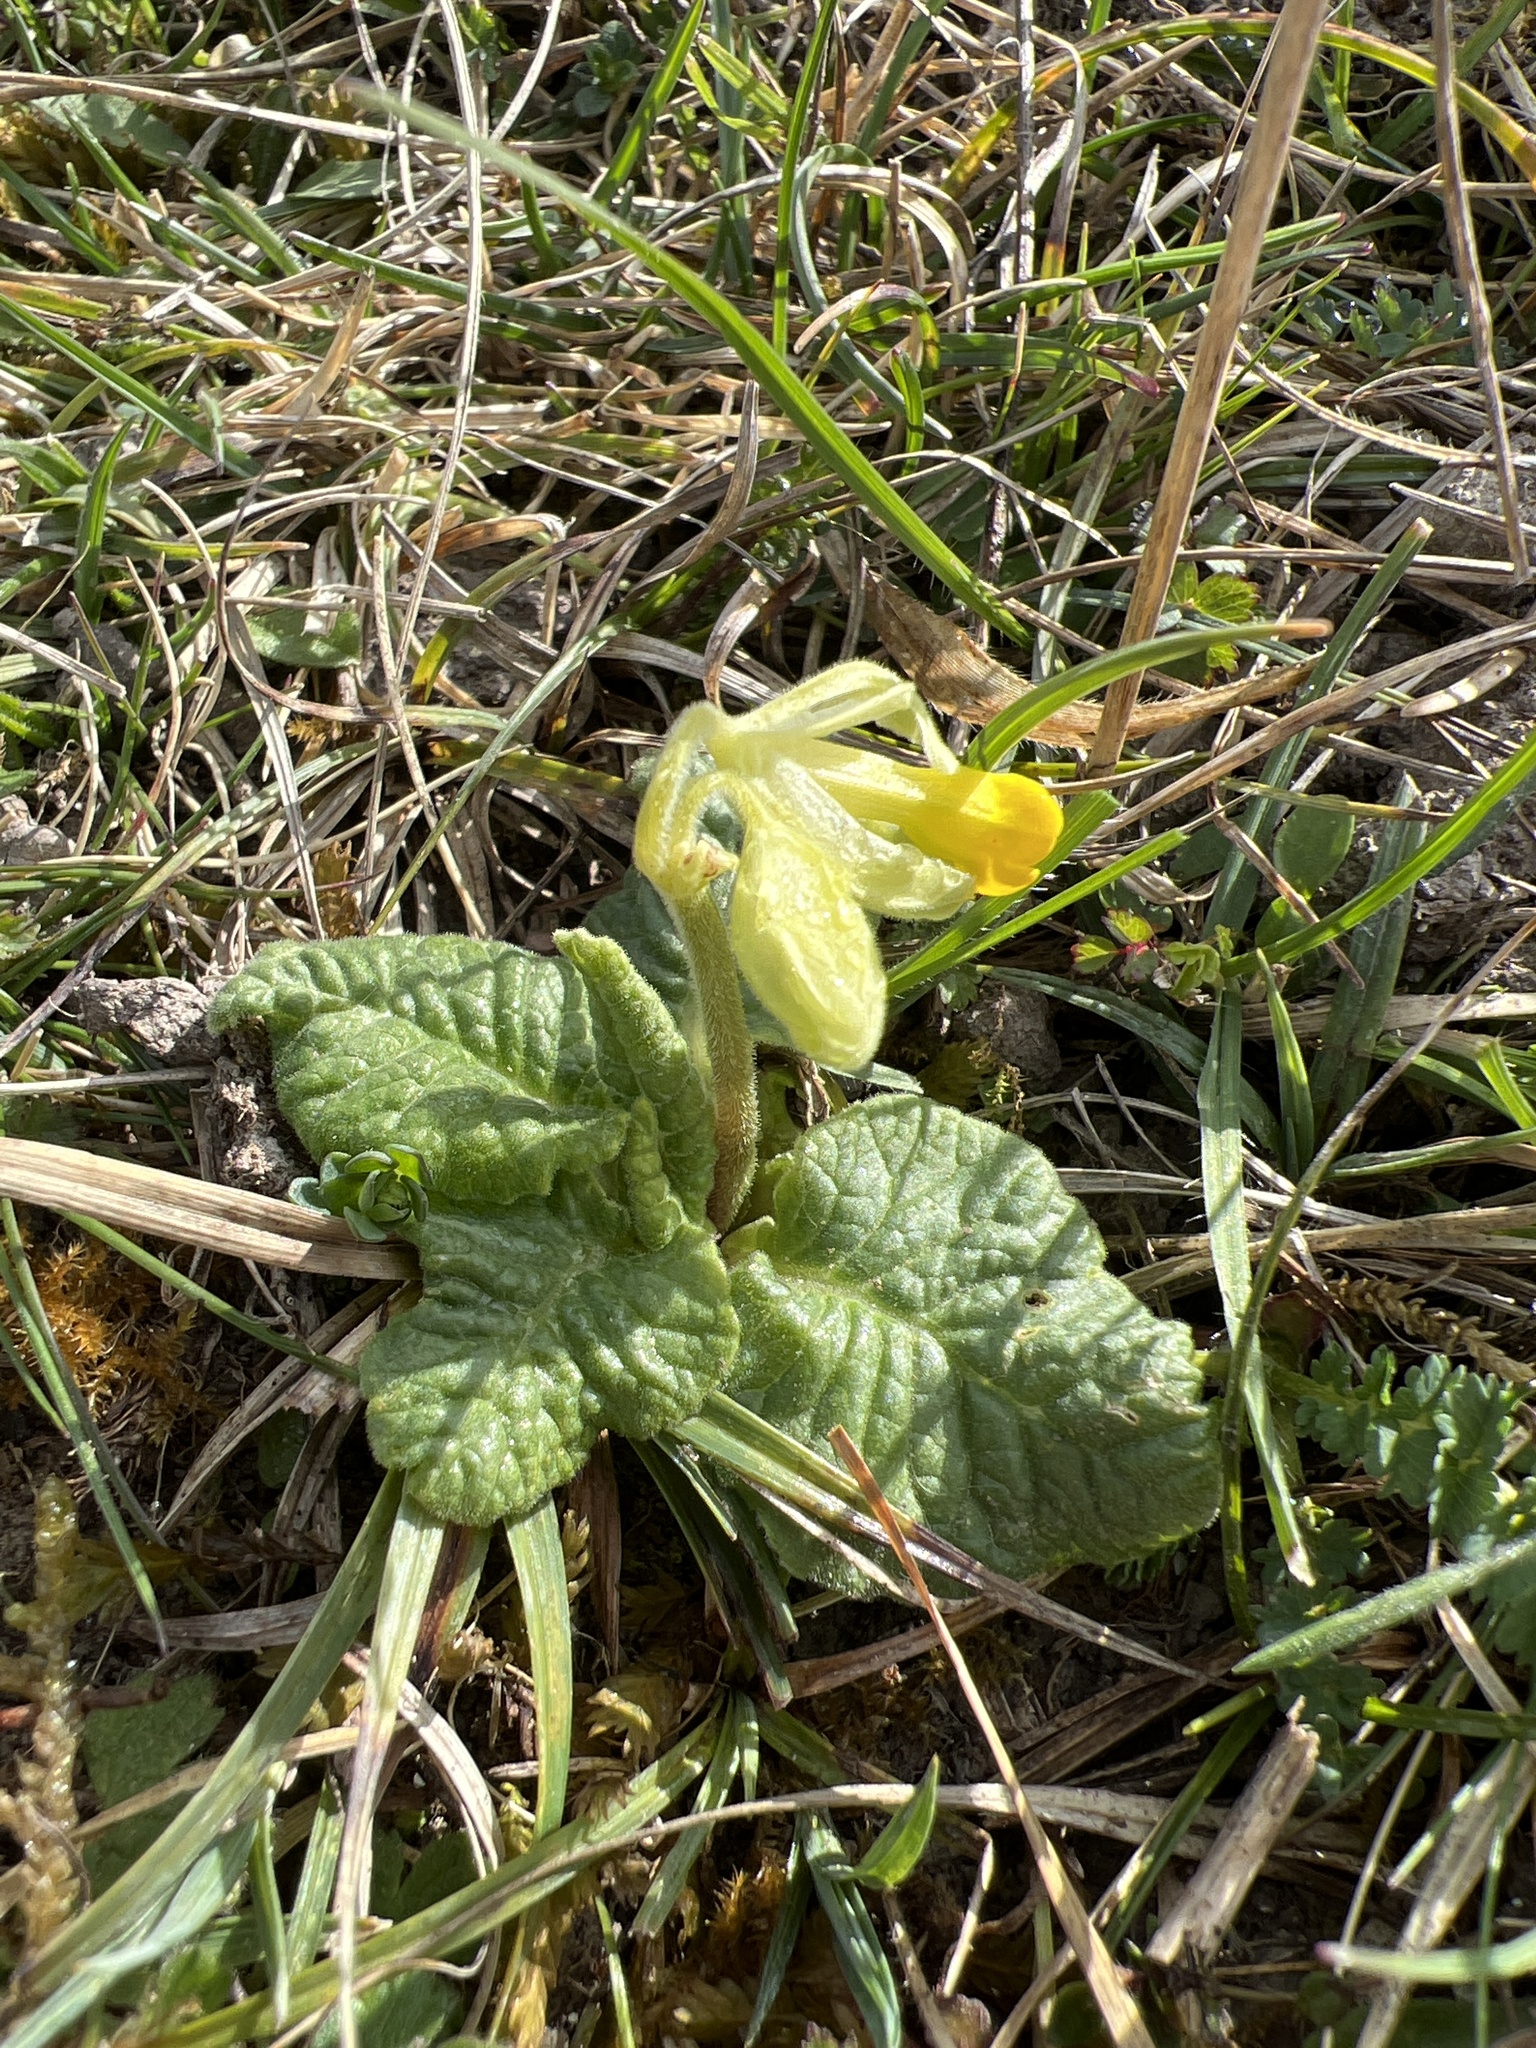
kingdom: Plantae
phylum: Tracheophyta
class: Magnoliopsida
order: Ericales
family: Primulaceae
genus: Primula
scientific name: Primula veris
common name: Cowslip
